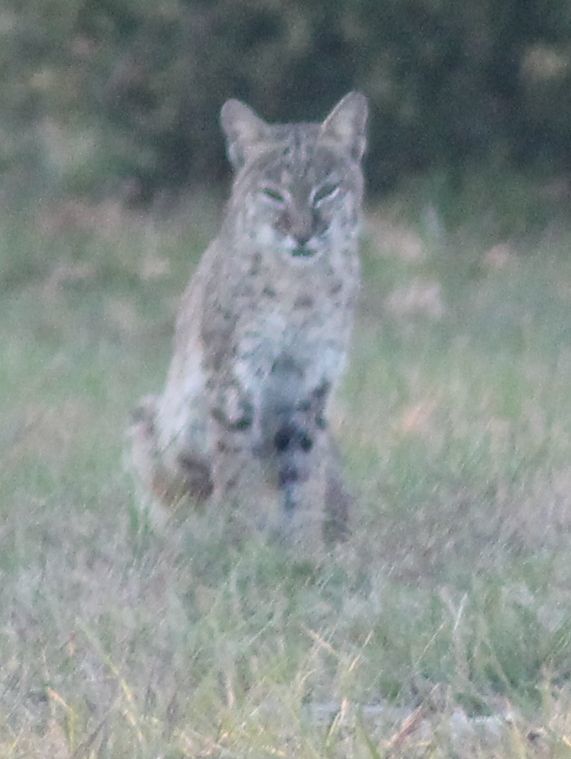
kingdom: Animalia
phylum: Chordata
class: Mammalia
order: Carnivora
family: Felidae
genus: Lynx
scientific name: Lynx rufus
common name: Bobcat
